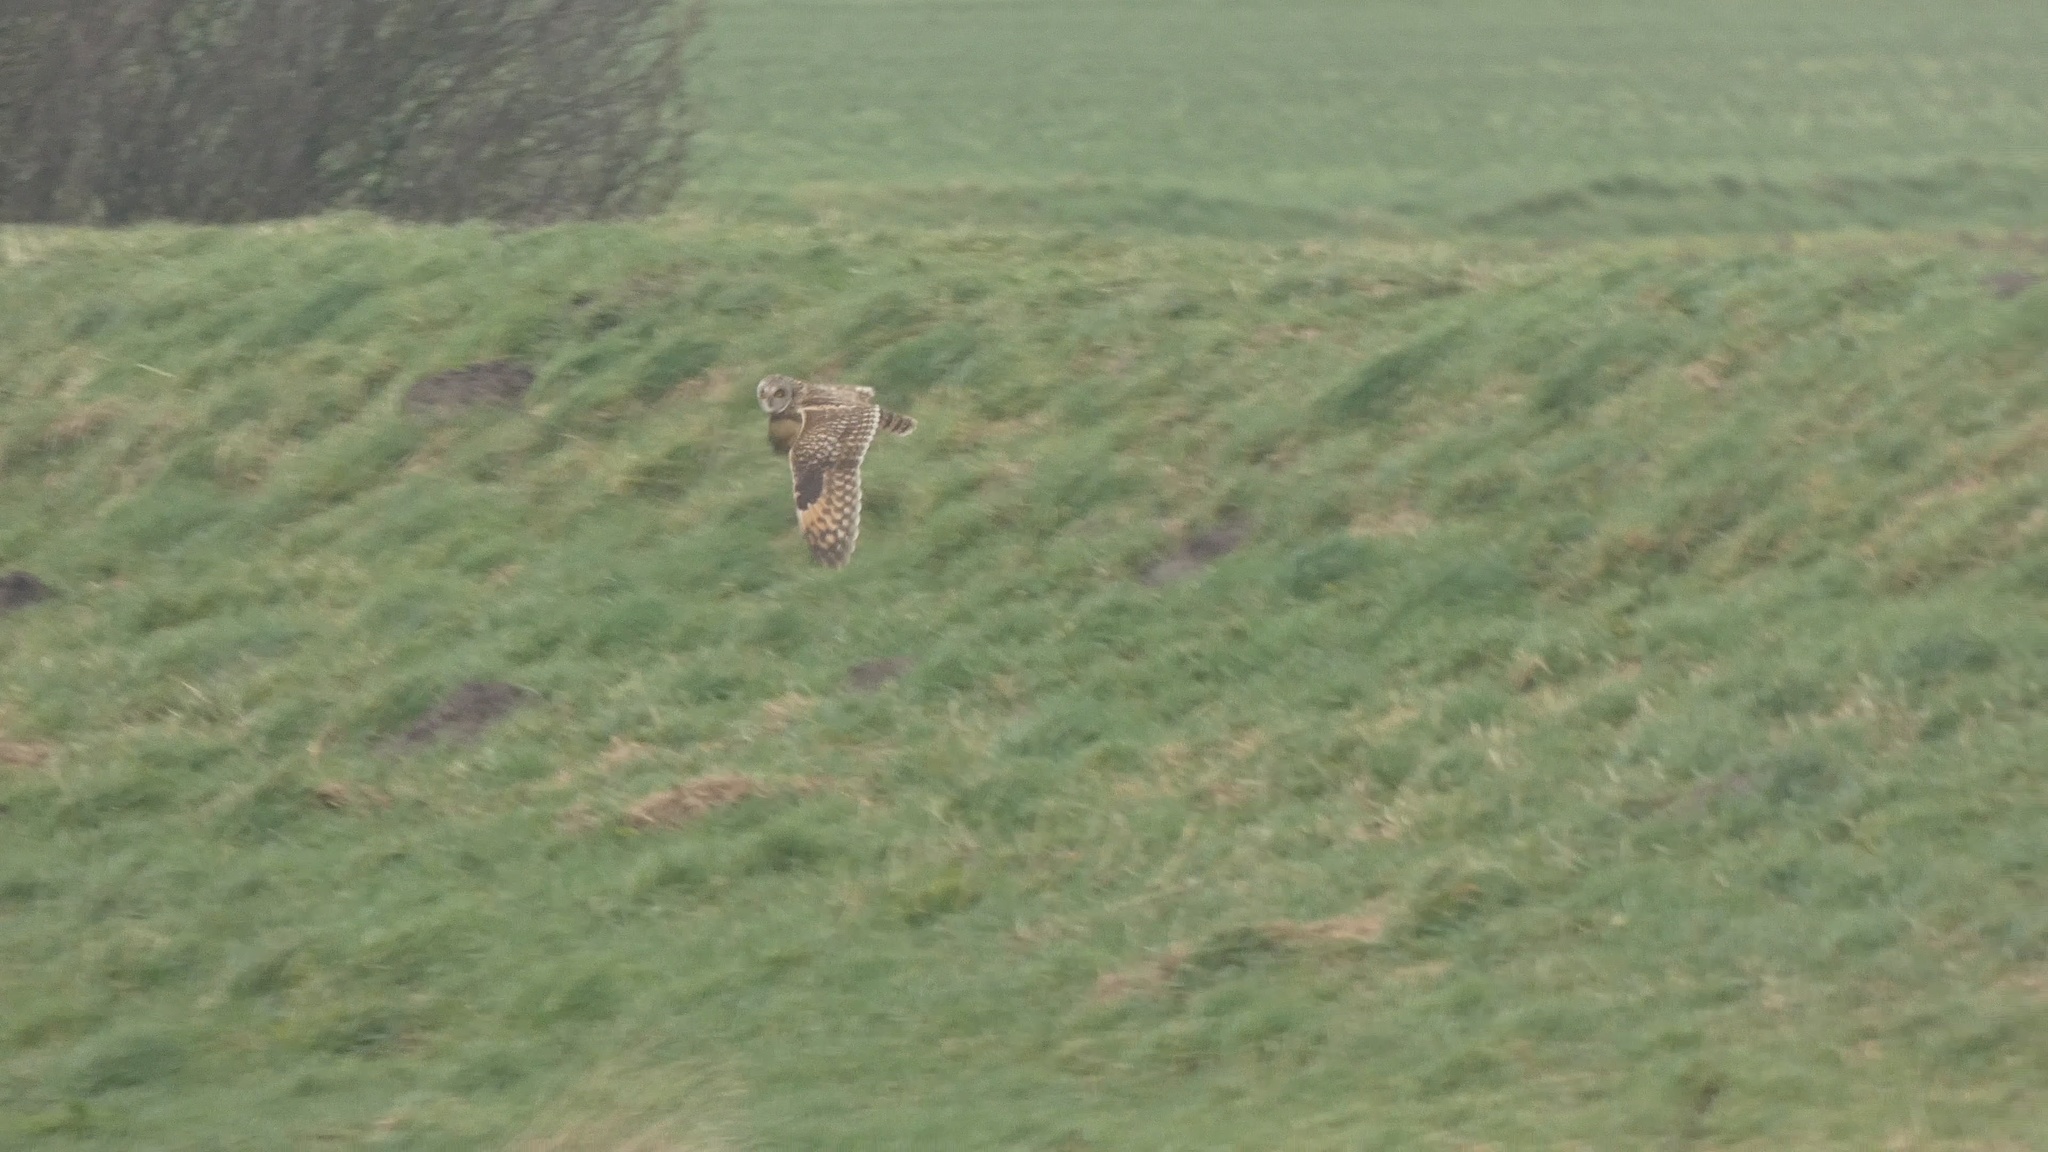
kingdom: Animalia
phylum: Chordata
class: Aves
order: Strigiformes
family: Strigidae
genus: Asio
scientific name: Asio flammeus
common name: Short-eared owl
